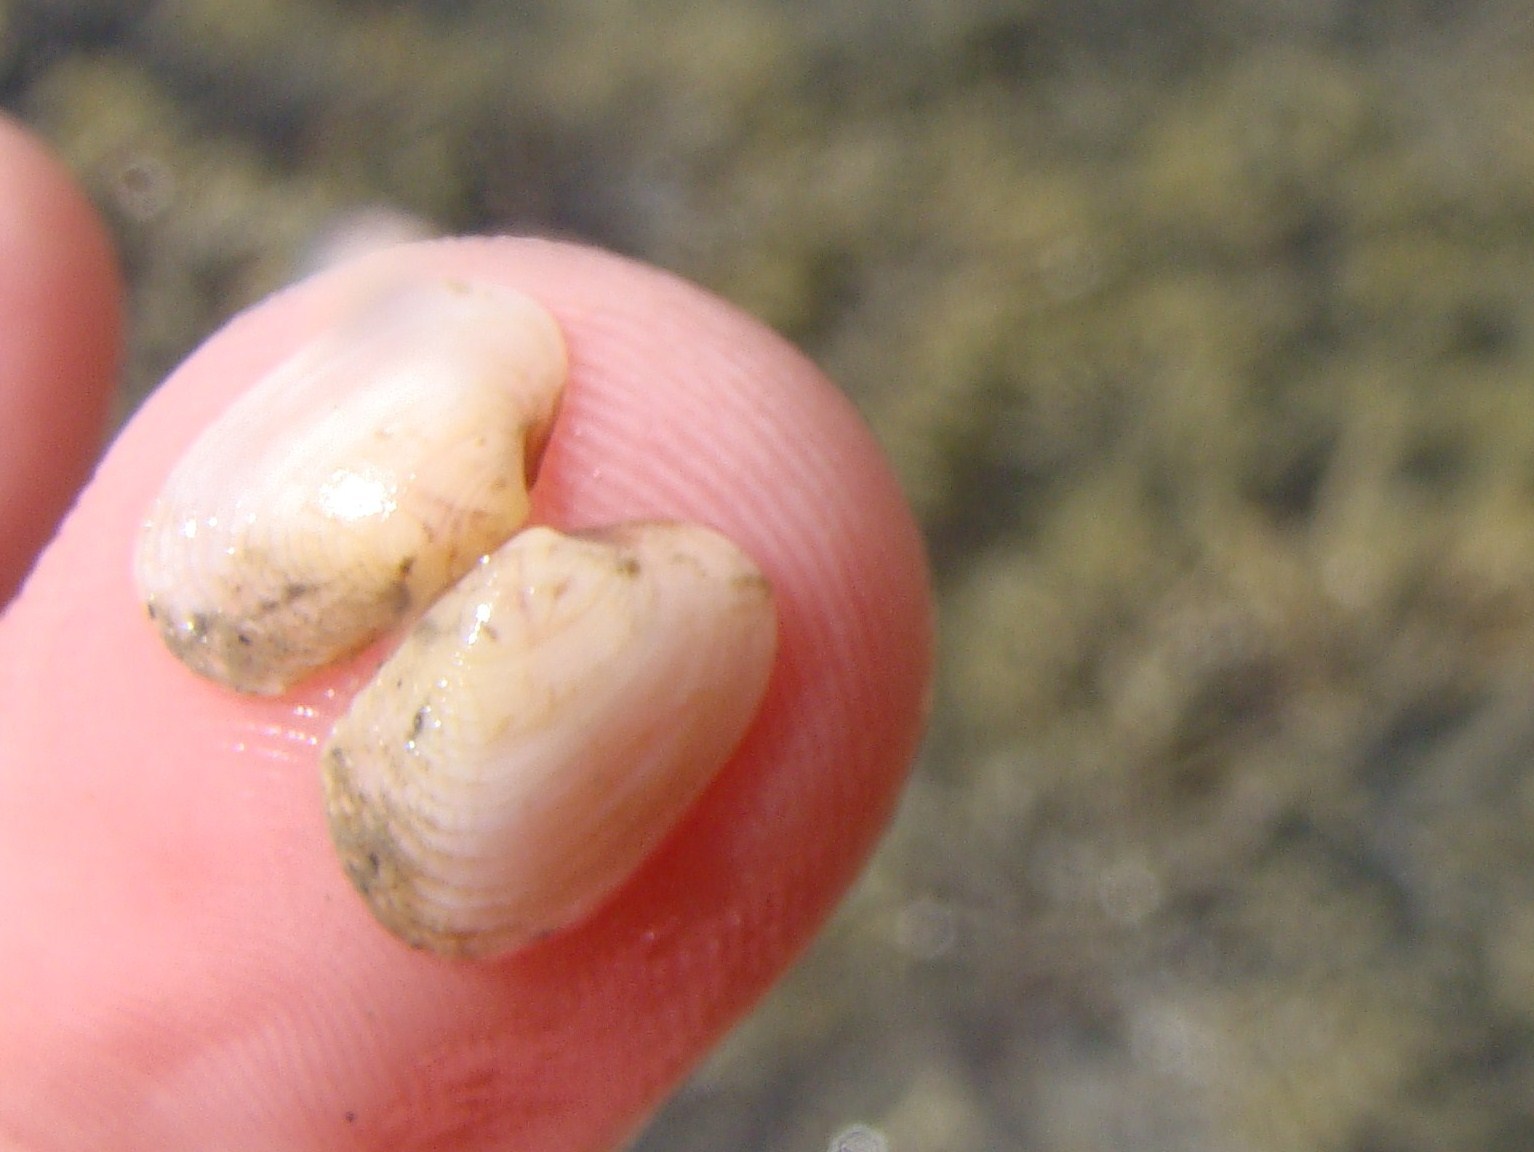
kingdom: Animalia
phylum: Mollusca
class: Bivalvia
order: Venerida
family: Veneridae
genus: Venerupis
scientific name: Venerupis largillierti
